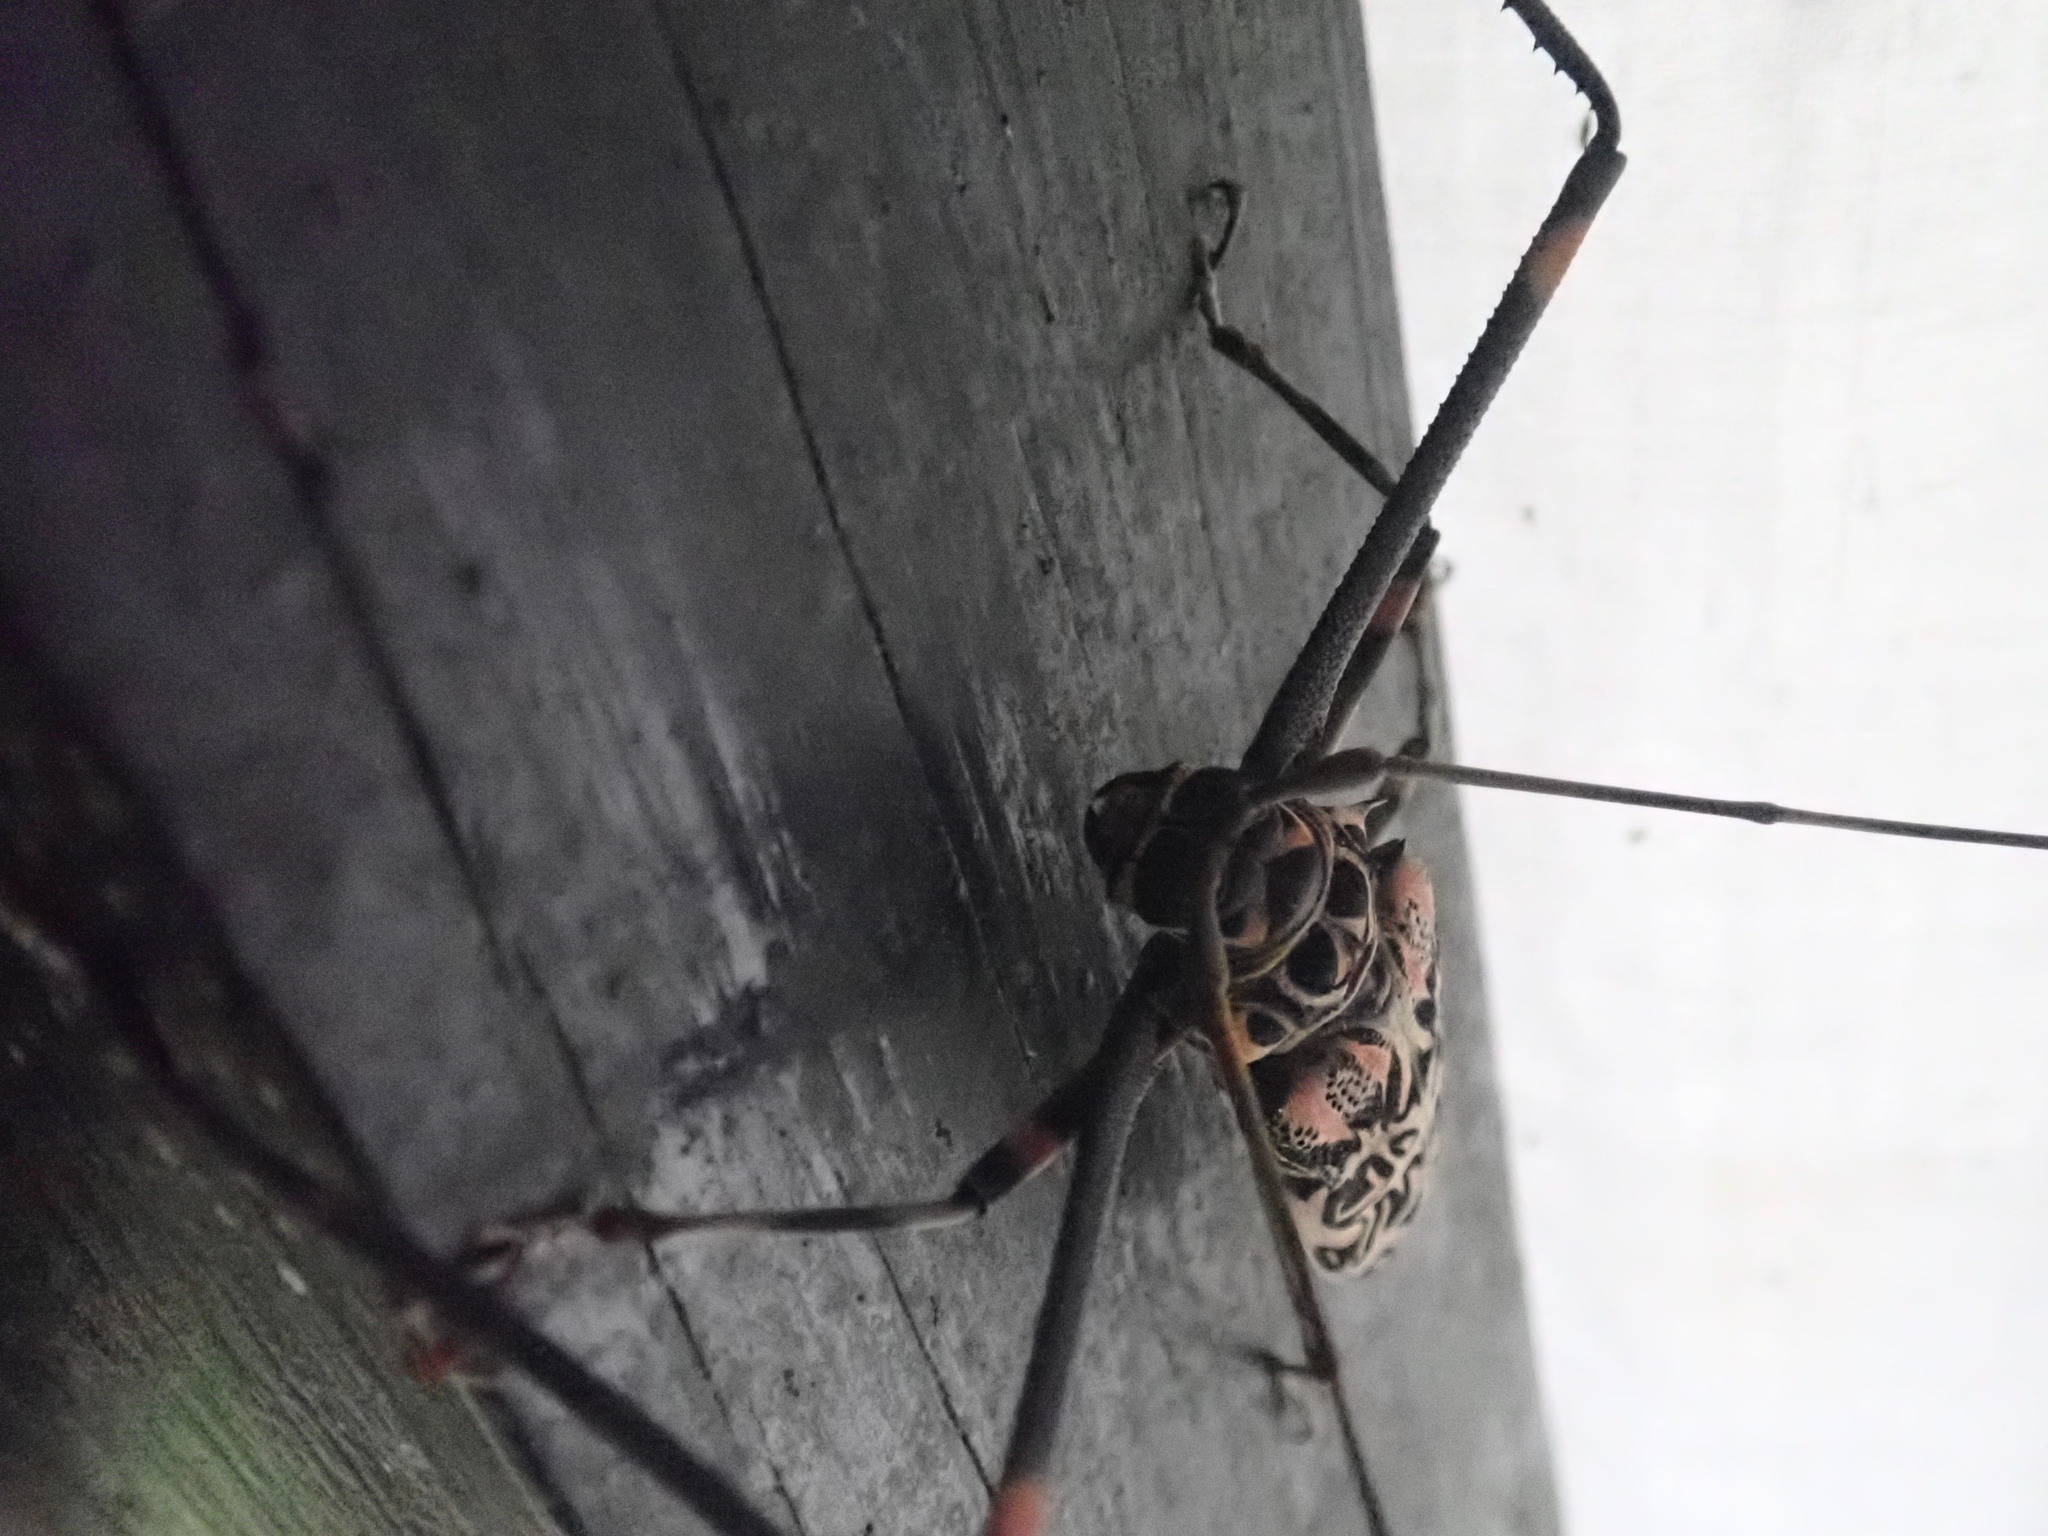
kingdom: Animalia
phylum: Arthropoda
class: Insecta
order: Coleoptera
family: Cerambycidae
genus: Acrocinus
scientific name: Acrocinus longimanus
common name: Arlequin
